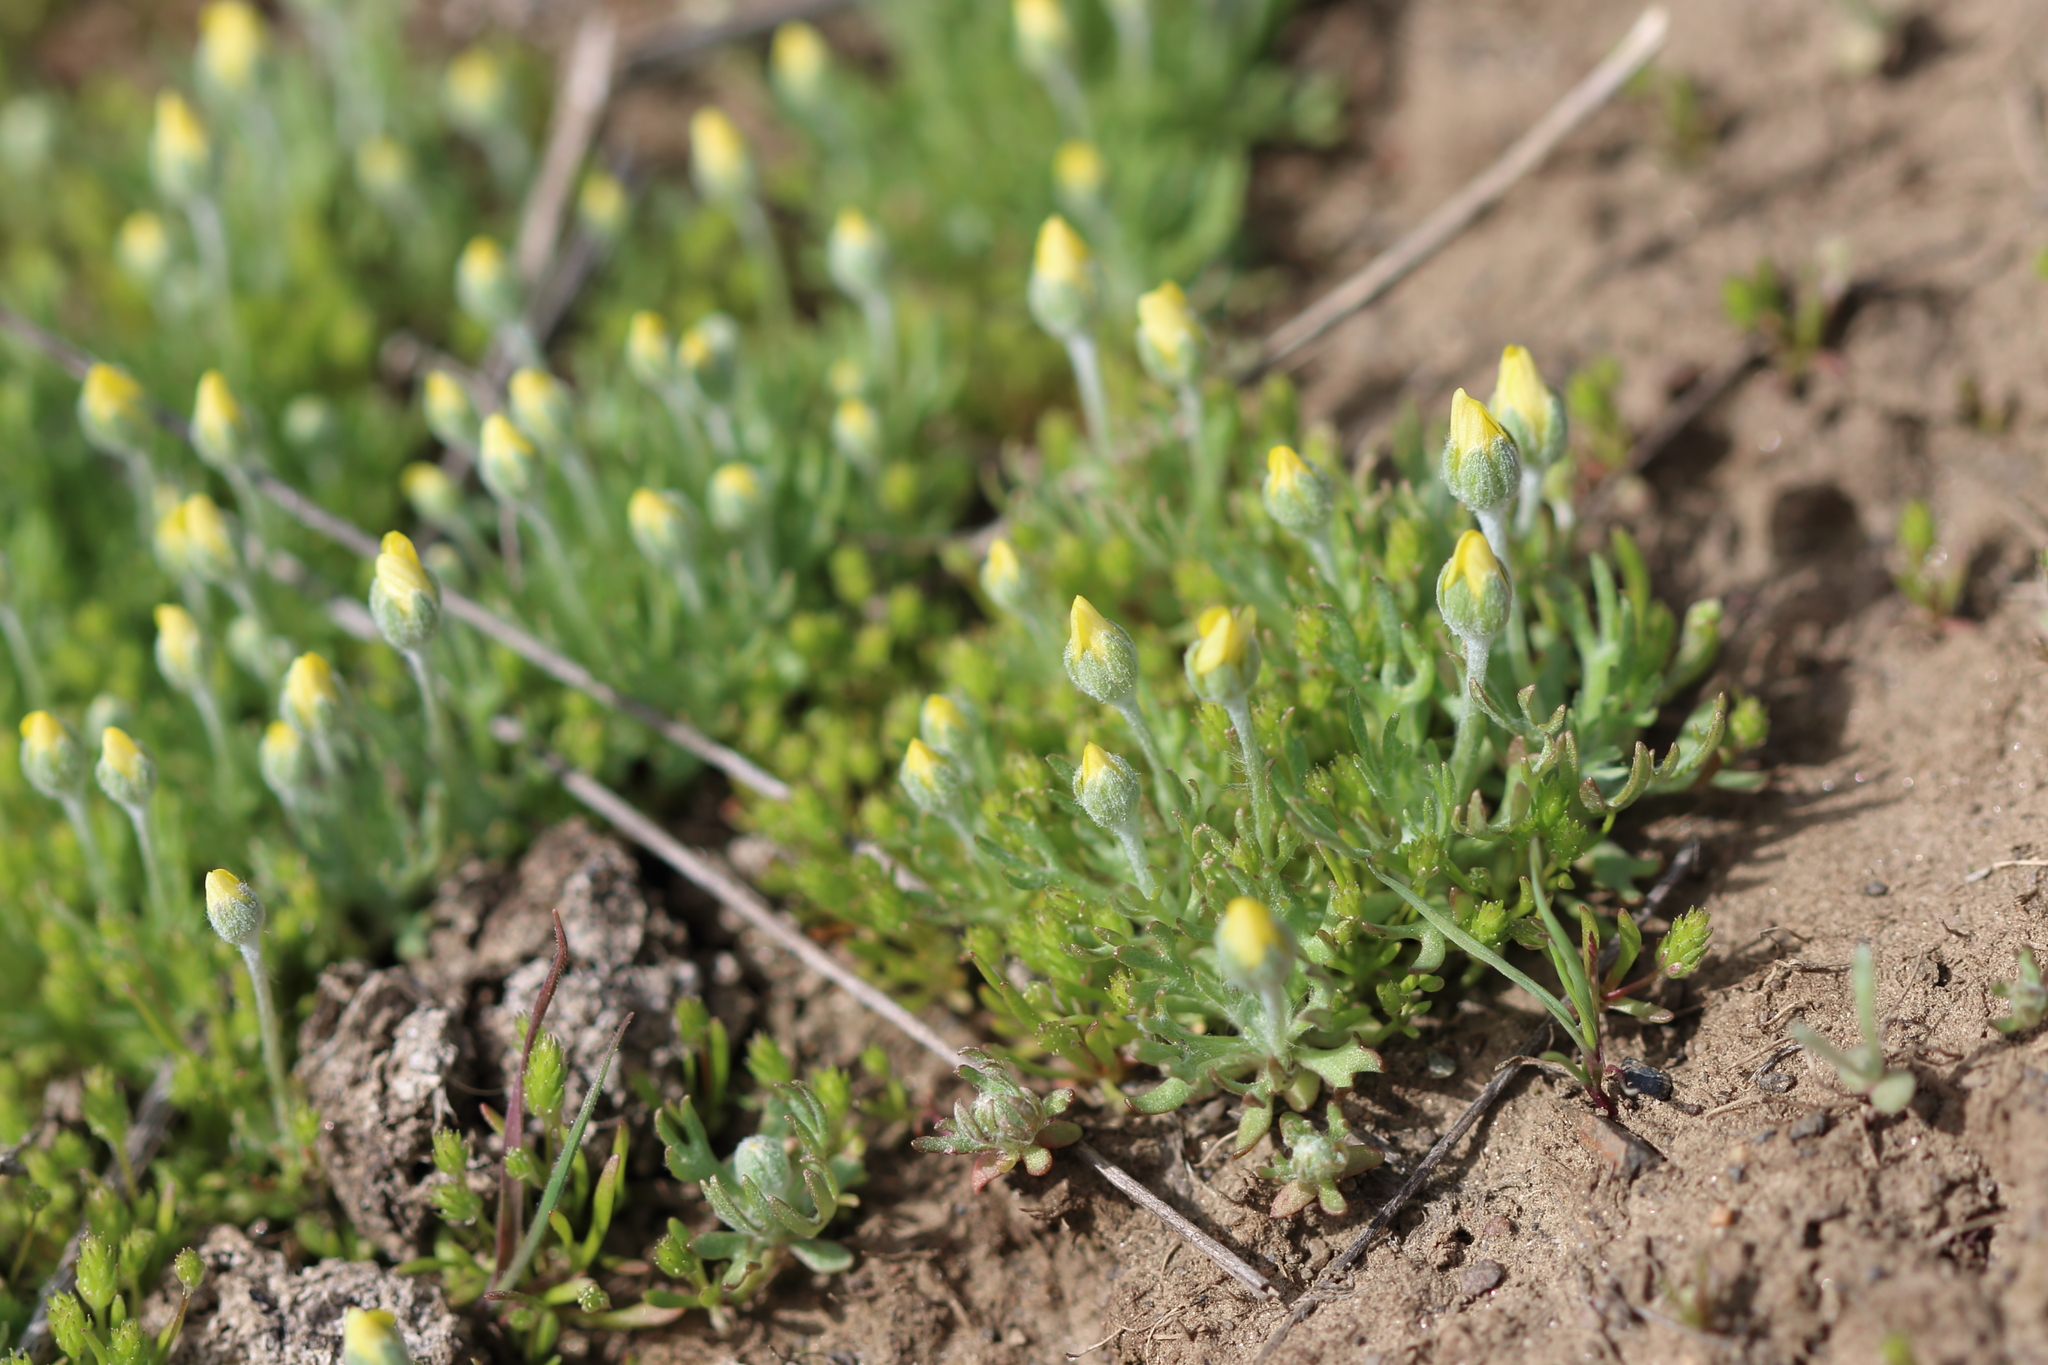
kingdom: Plantae
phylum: Tracheophyta
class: Magnoliopsida
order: Ranunculales
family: Ranunculaceae
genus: Ceratocephala
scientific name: Ceratocephala orthoceras
